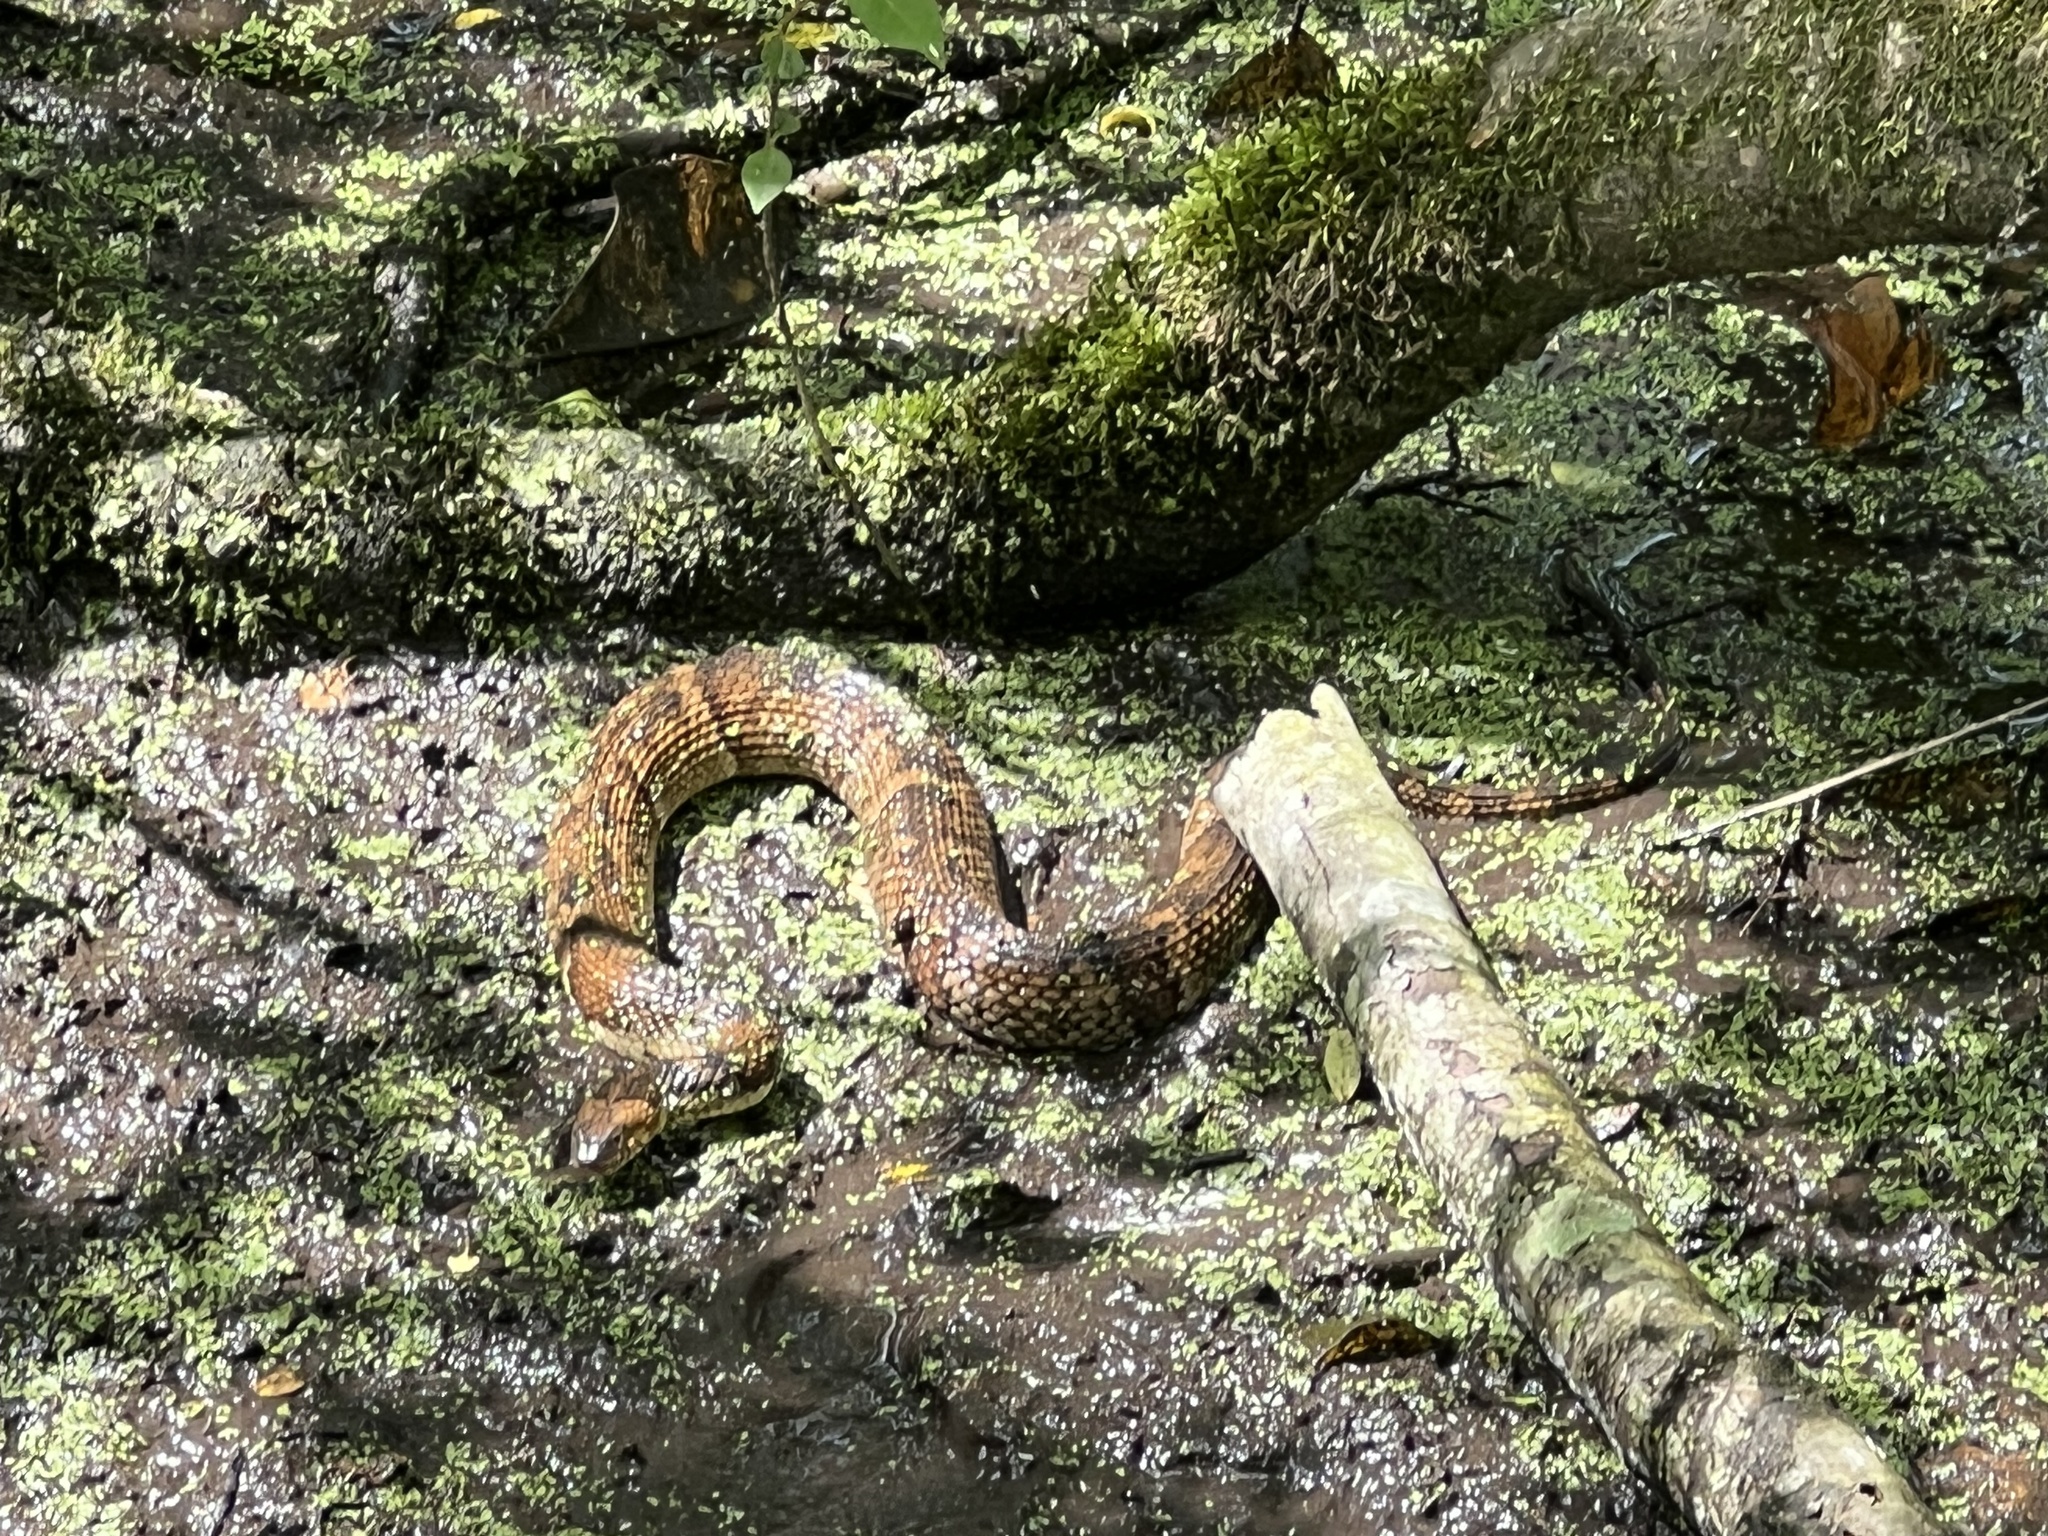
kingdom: Animalia
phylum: Chordata
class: Squamata
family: Colubridae
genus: Nerodia
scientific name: Nerodia fasciata
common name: Southern water snake
